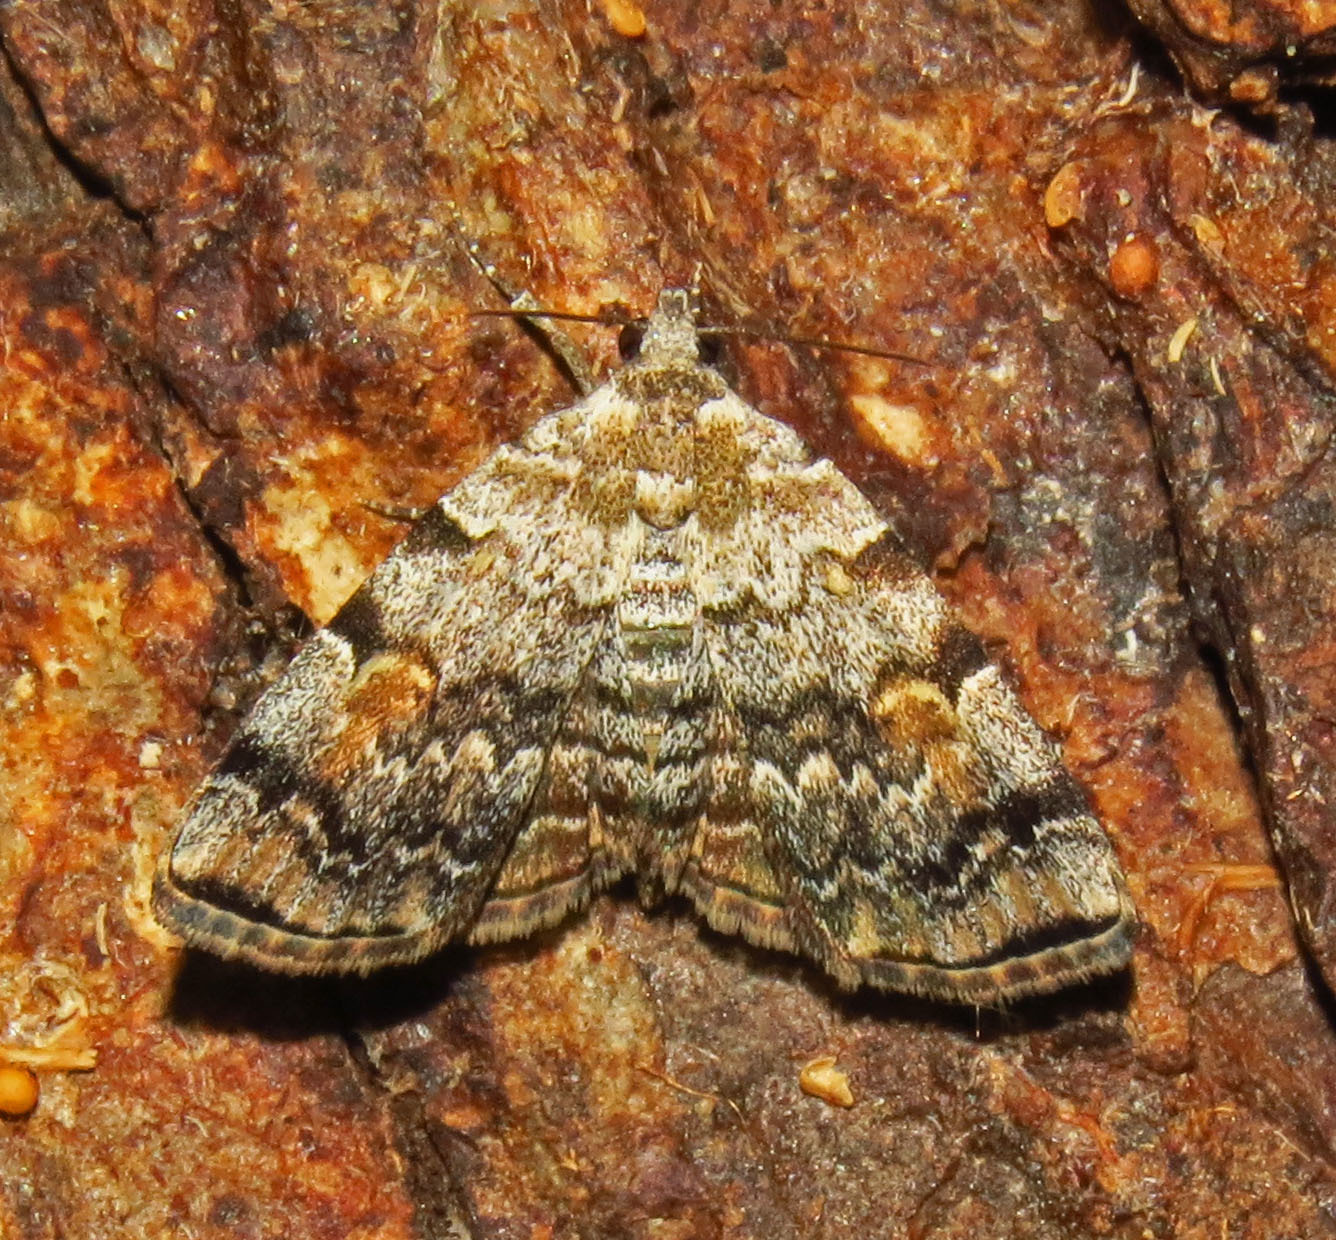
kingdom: Animalia
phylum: Arthropoda
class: Insecta
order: Lepidoptera
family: Erebidae
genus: Idia
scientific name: Idia americalis
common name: American idia moth
